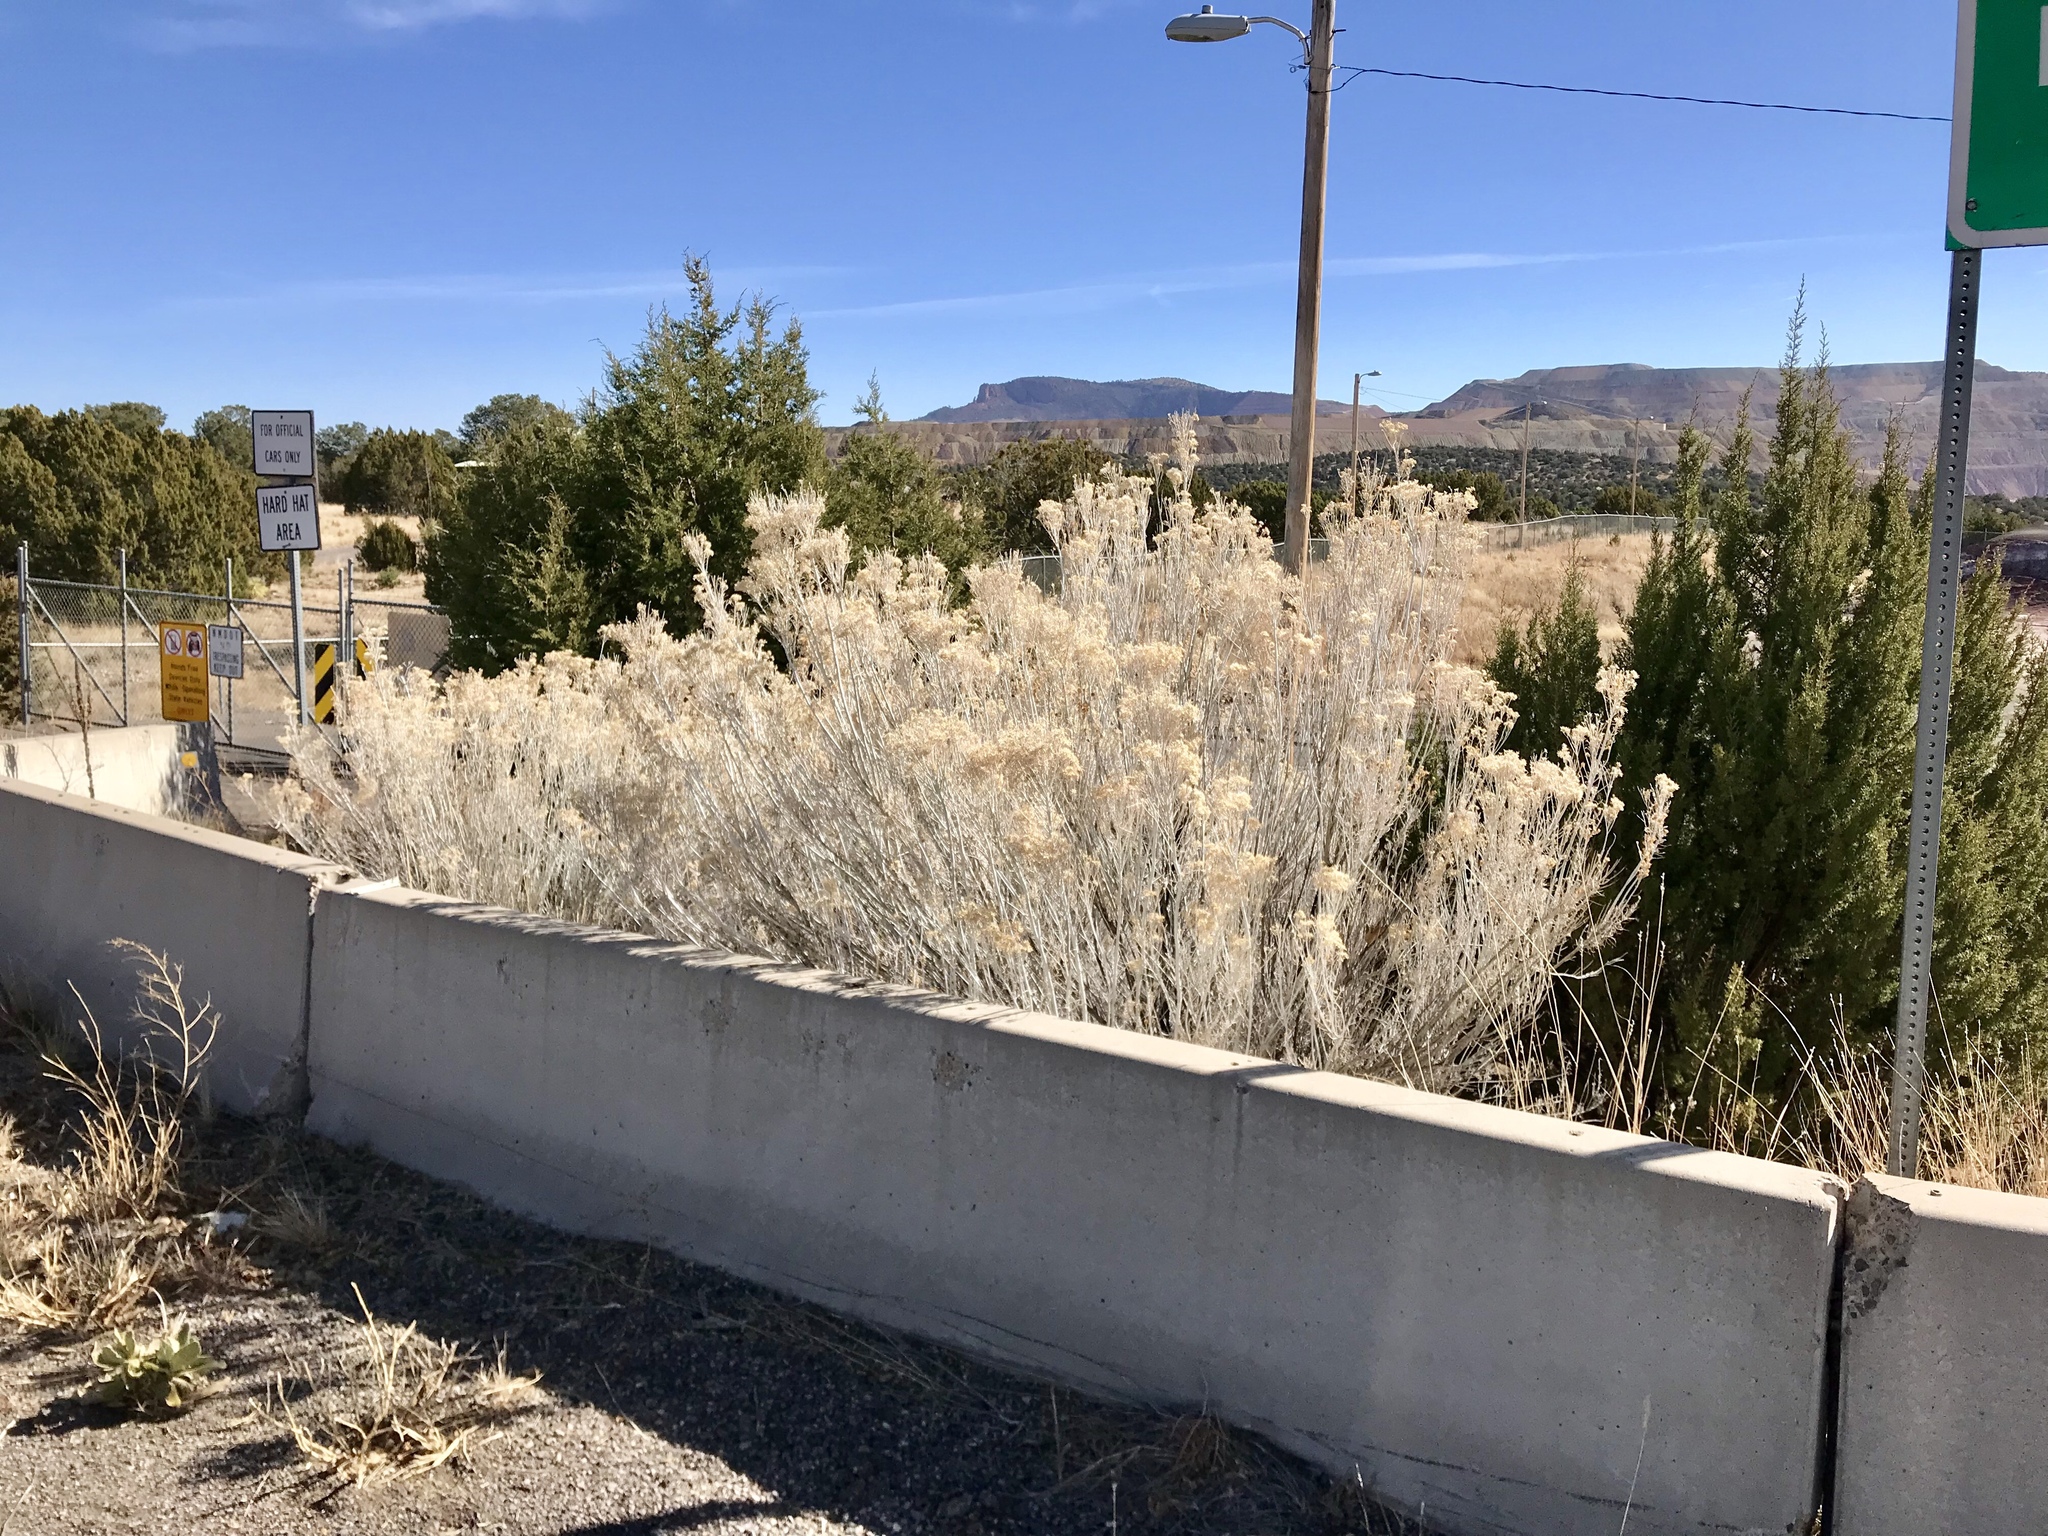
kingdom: Plantae
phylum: Tracheophyta
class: Magnoliopsida
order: Asterales
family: Asteraceae
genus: Ericameria
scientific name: Ericameria nauseosa
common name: Rubber rabbitbrush
